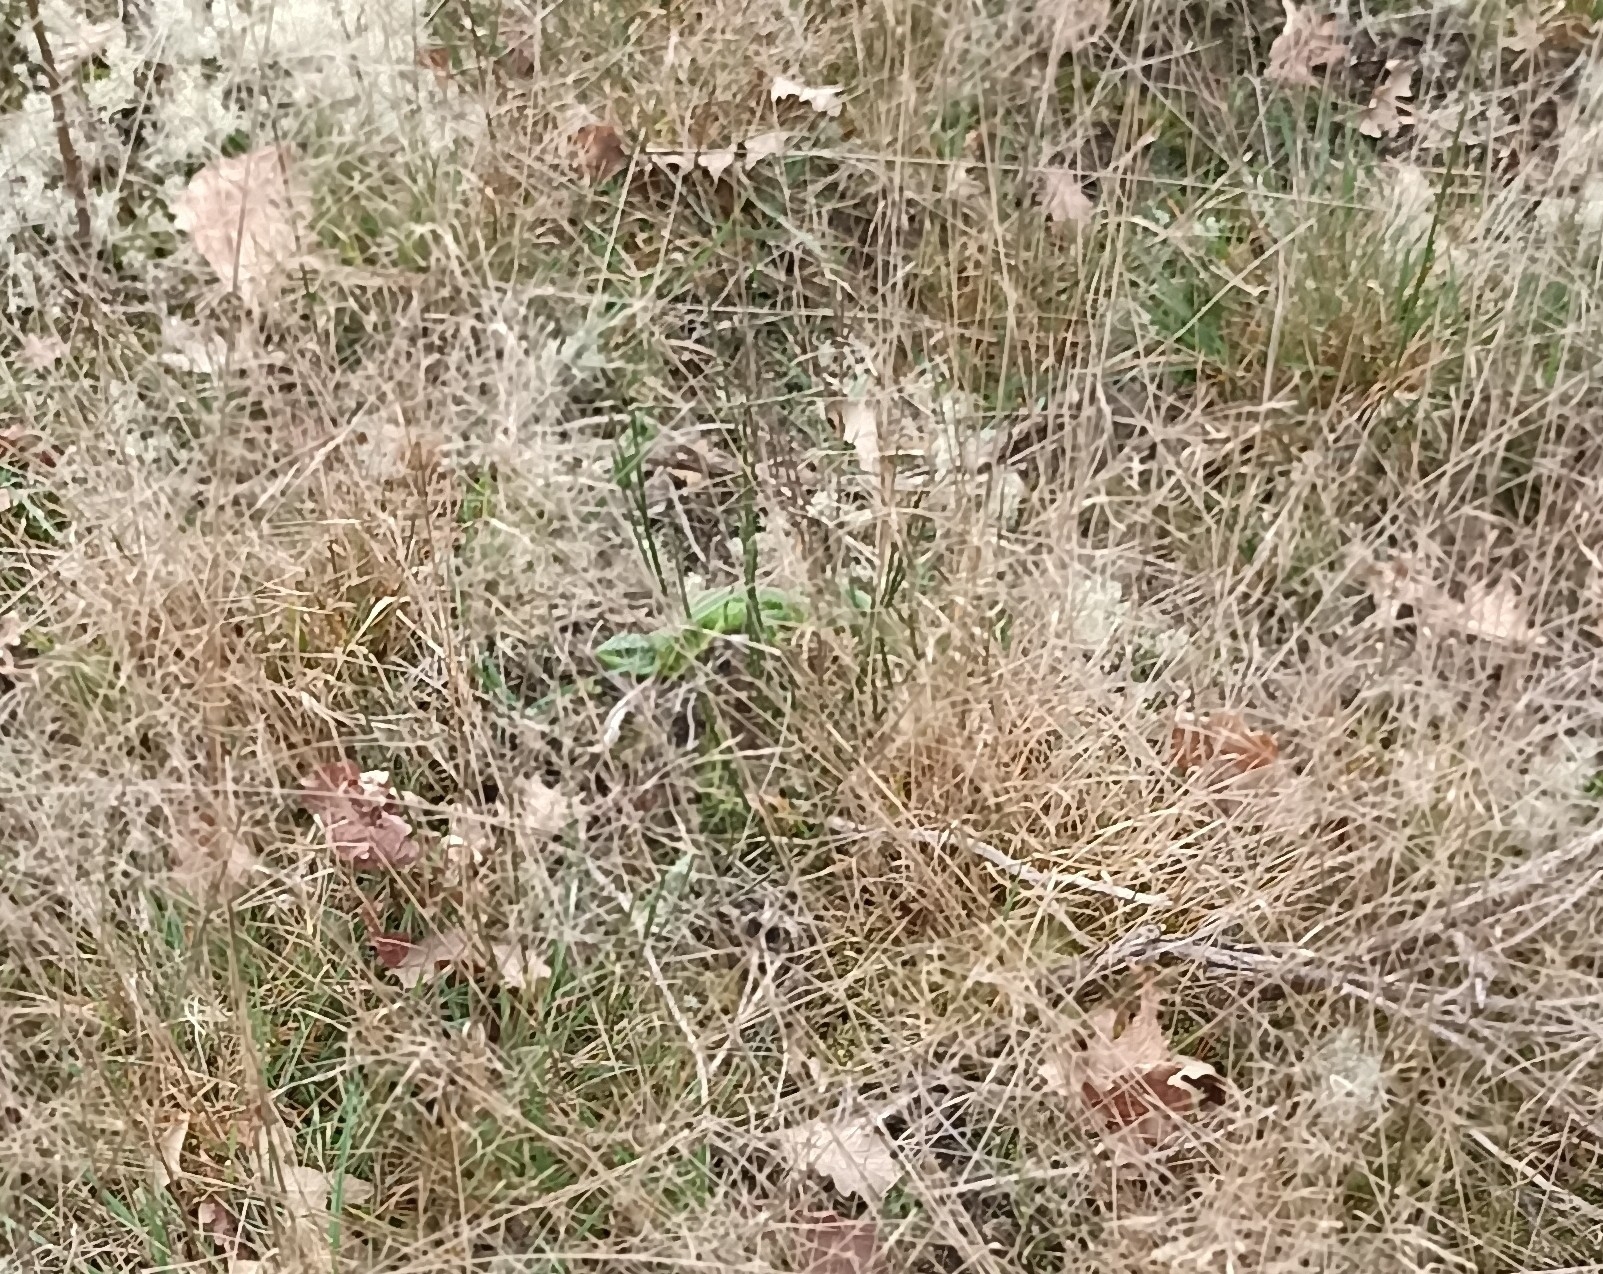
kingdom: Animalia
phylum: Chordata
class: Squamata
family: Lacertidae
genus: Lacerta
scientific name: Lacerta bilineata
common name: Western green lizard
